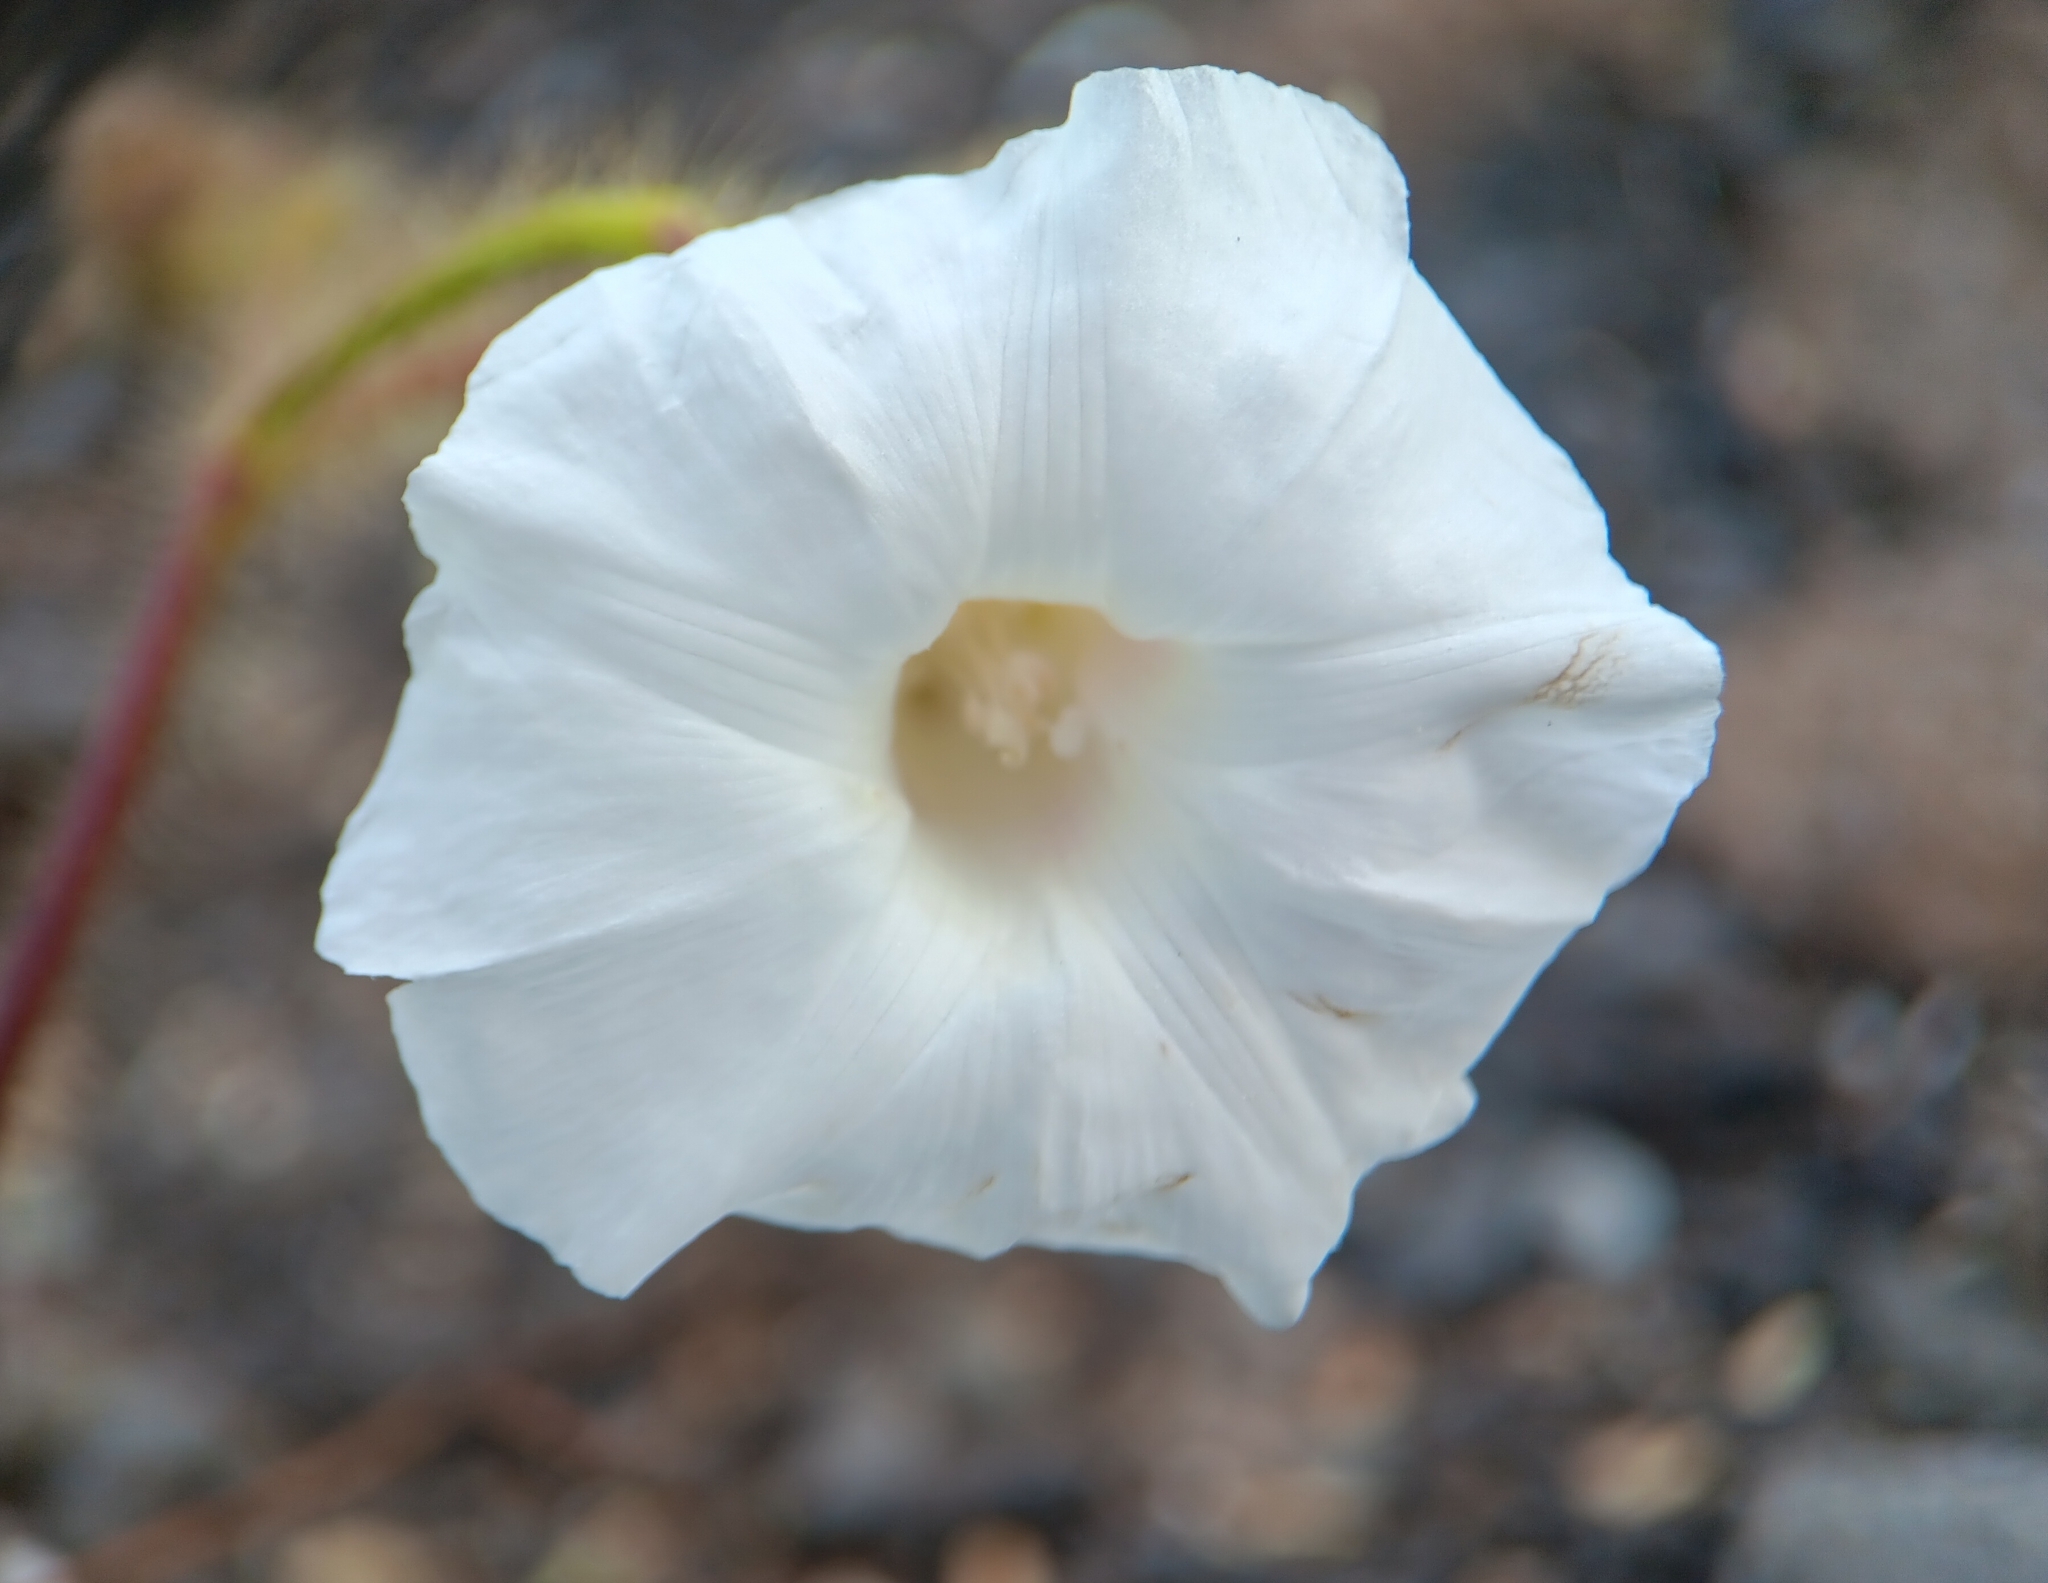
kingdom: Plantae
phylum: Tracheophyta
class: Magnoliopsida
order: Solanales
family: Convolvulaceae
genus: Distimake
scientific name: Distimake aegyptius
